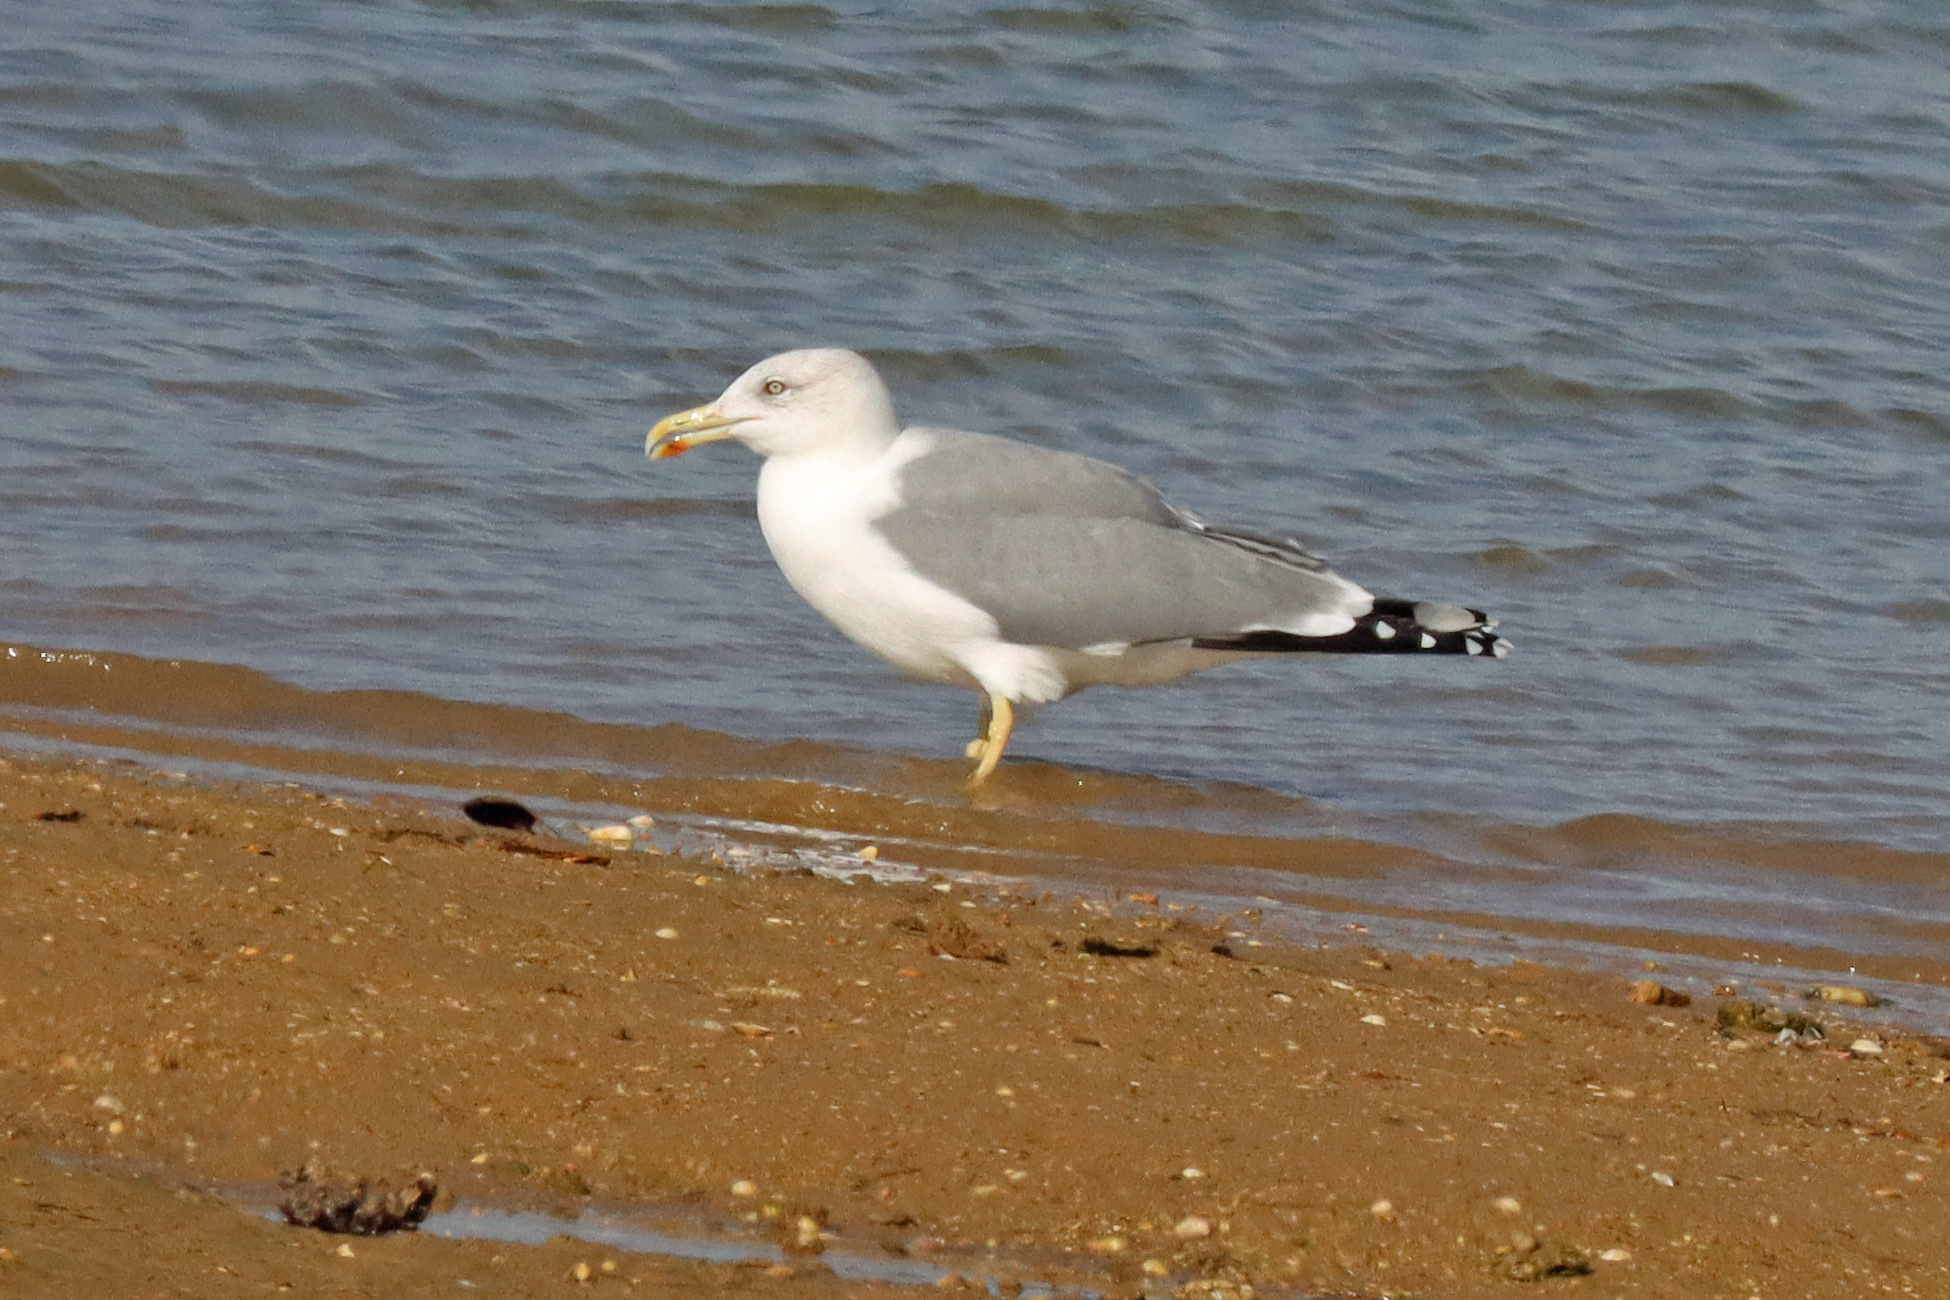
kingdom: Animalia
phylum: Chordata
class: Aves
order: Charadriiformes
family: Laridae
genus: Larus
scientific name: Larus michahellis
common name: Yellow-legged gull
